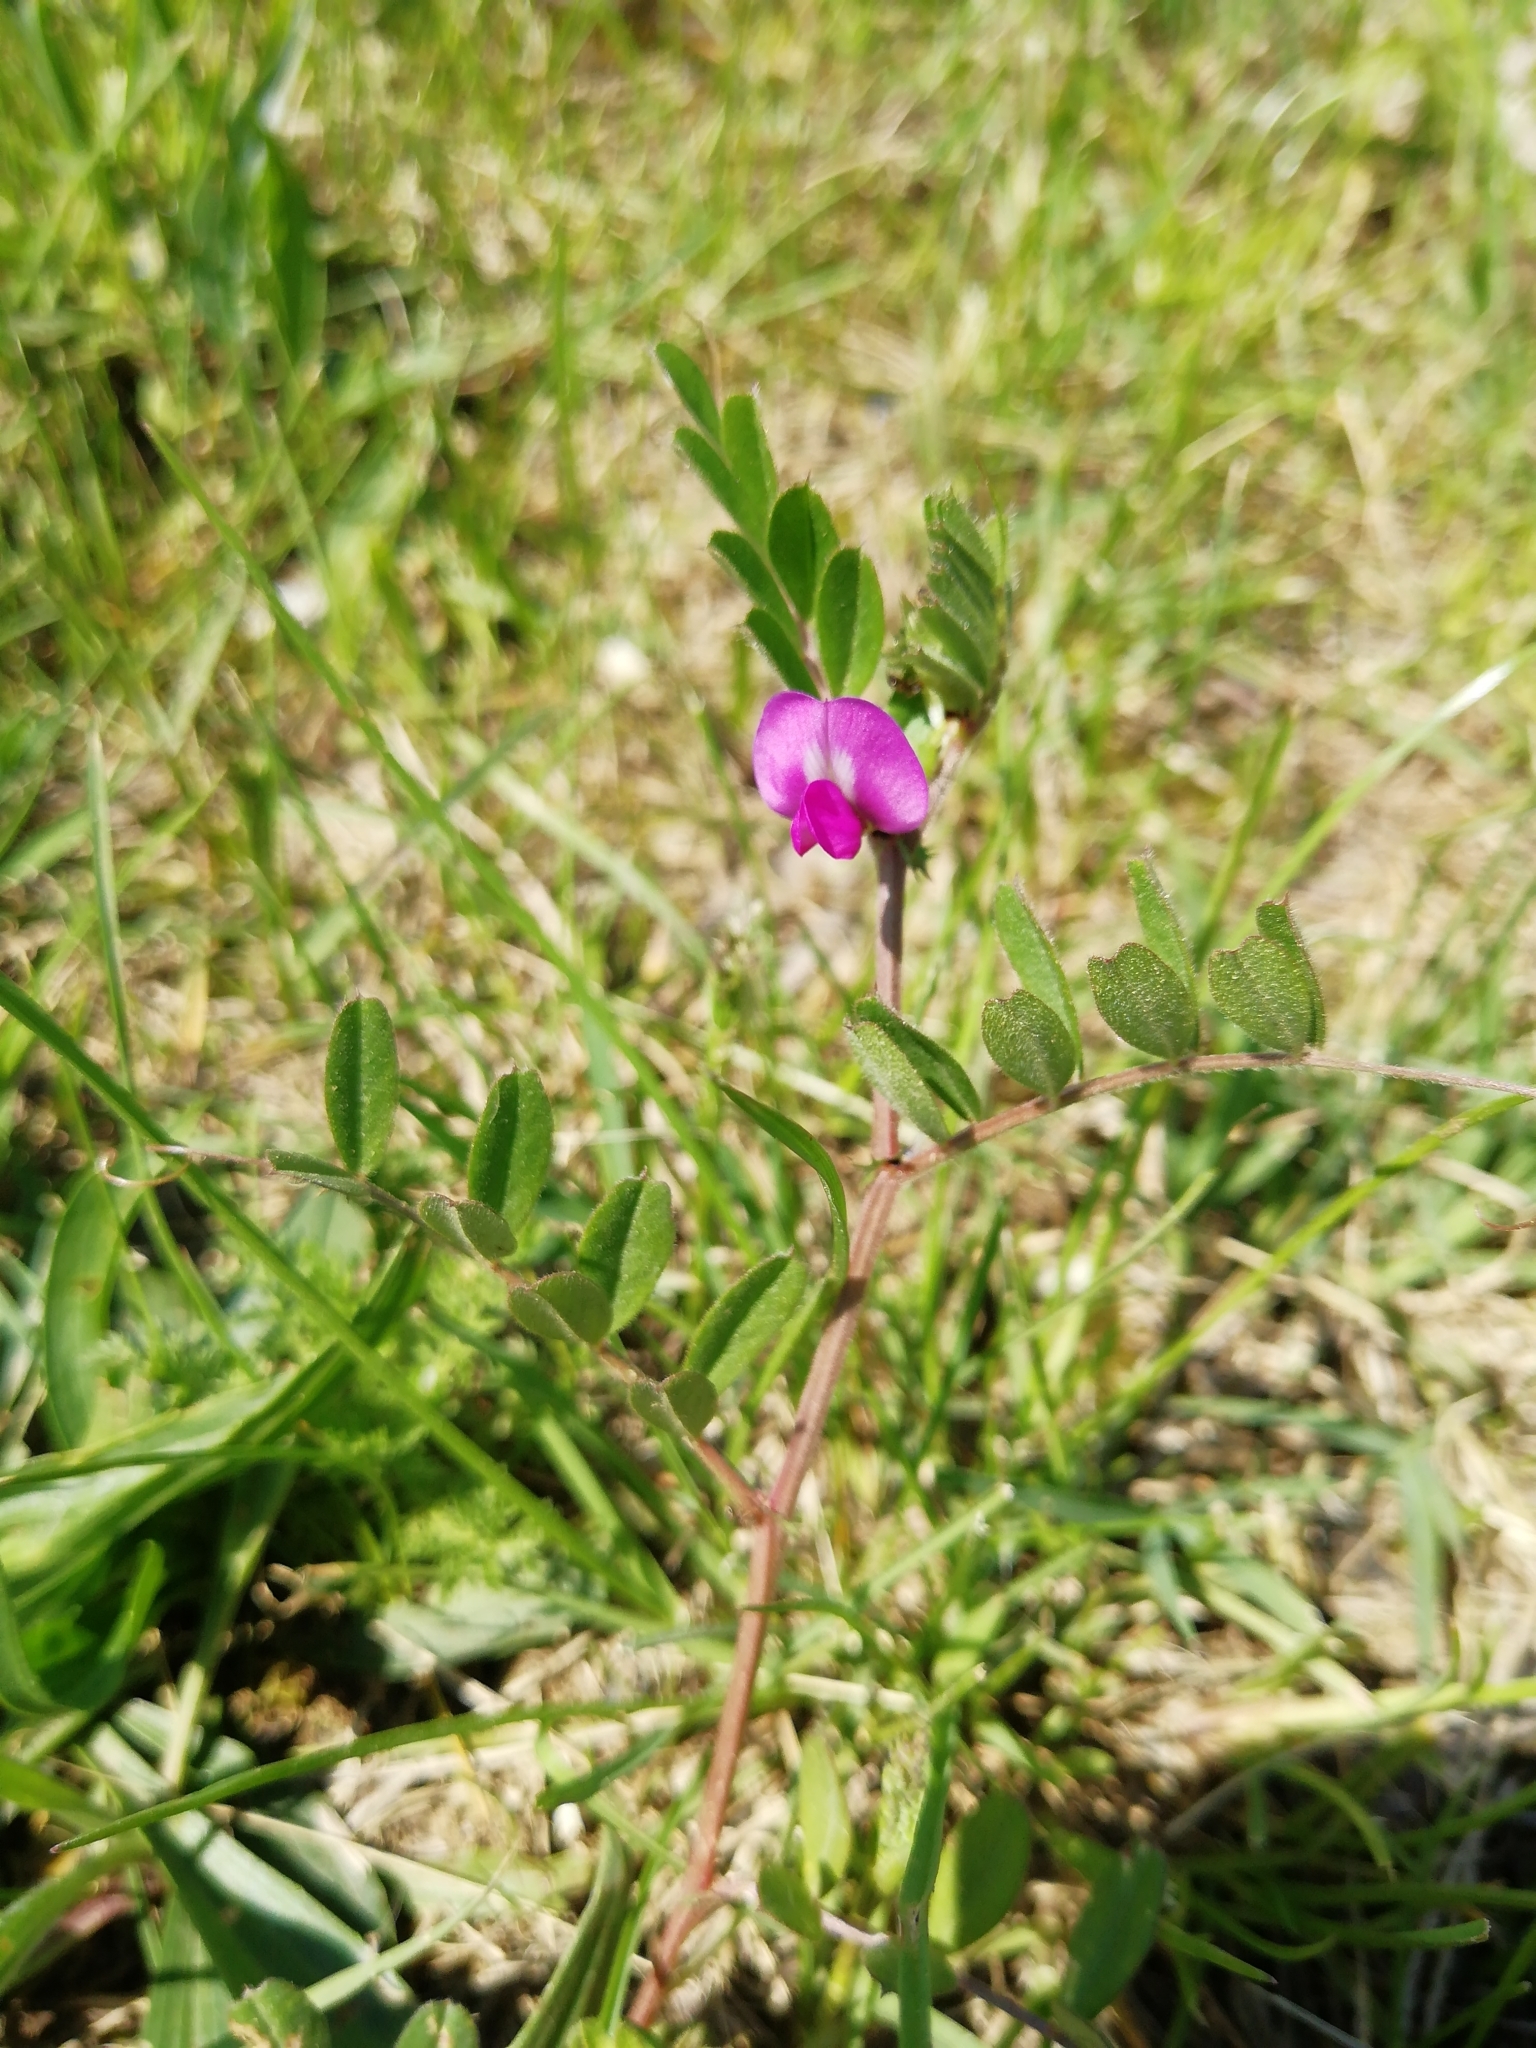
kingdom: Plantae
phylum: Tracheophyta
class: Magnoliopsida
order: Fabales
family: Fabaceae
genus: Vicia
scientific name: Vicia sativa
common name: Garden vetch
